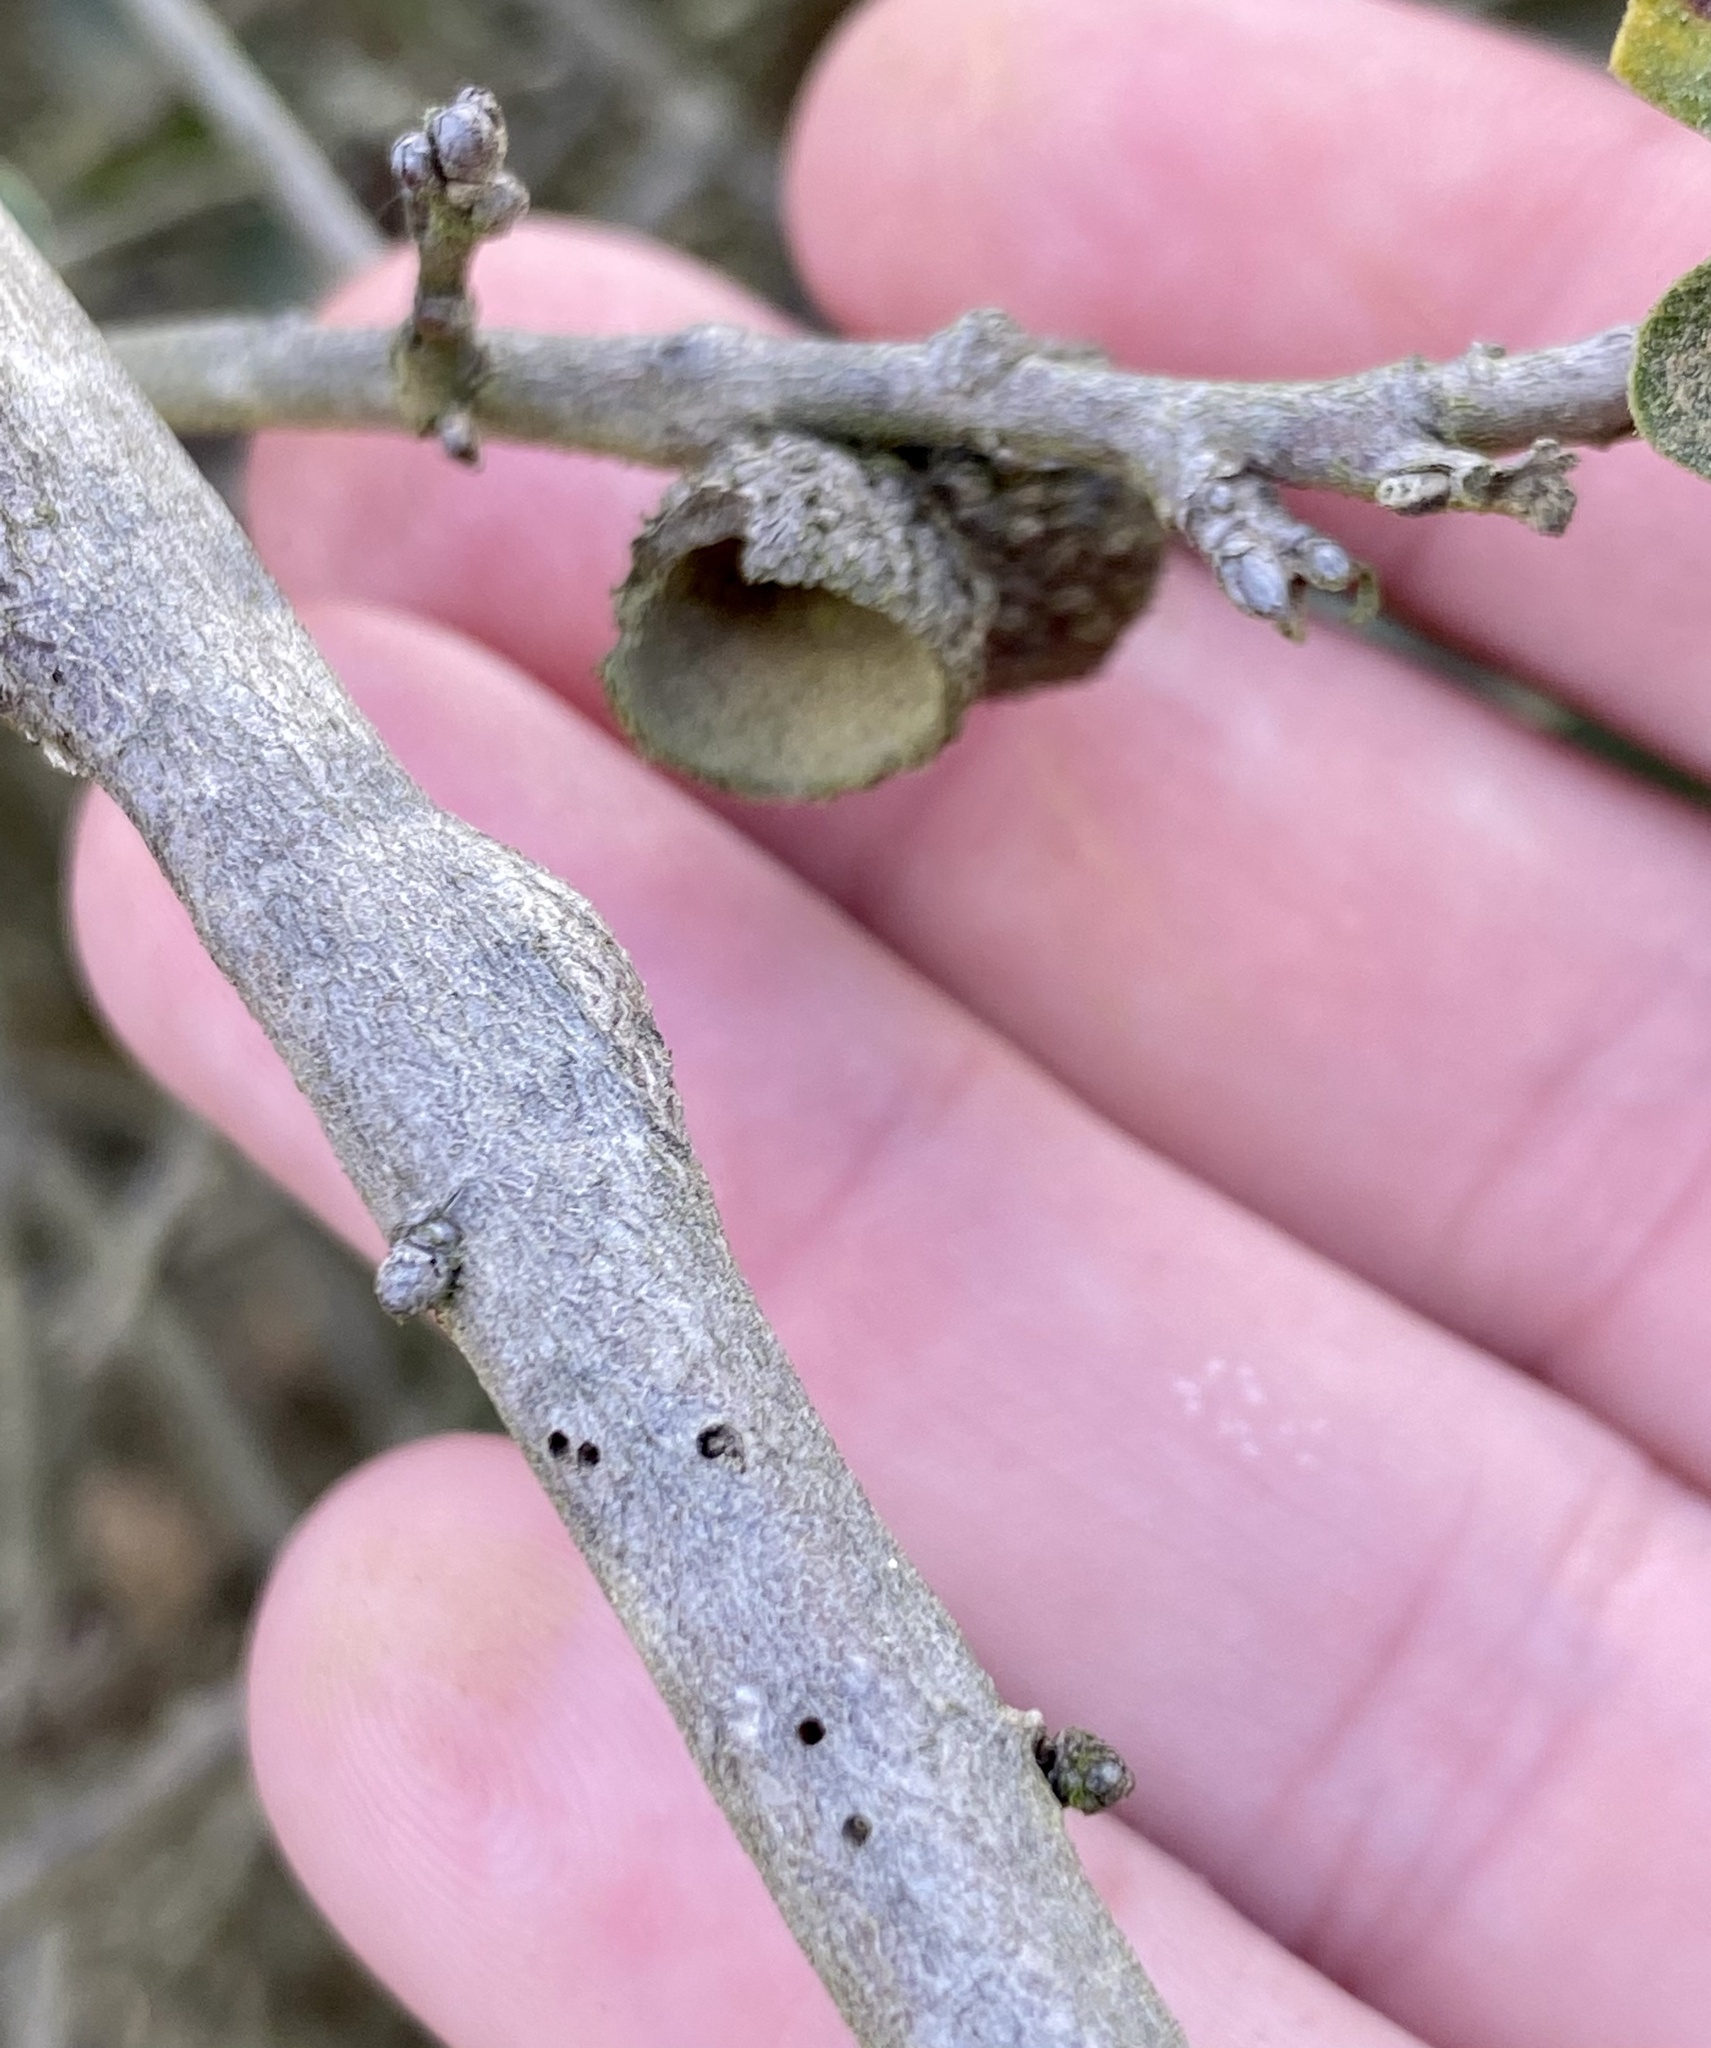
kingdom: Animalia
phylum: Arthropoda
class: Insecta
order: Hymenoptera
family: Cynipidae
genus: Bassettia
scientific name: Bassettia
